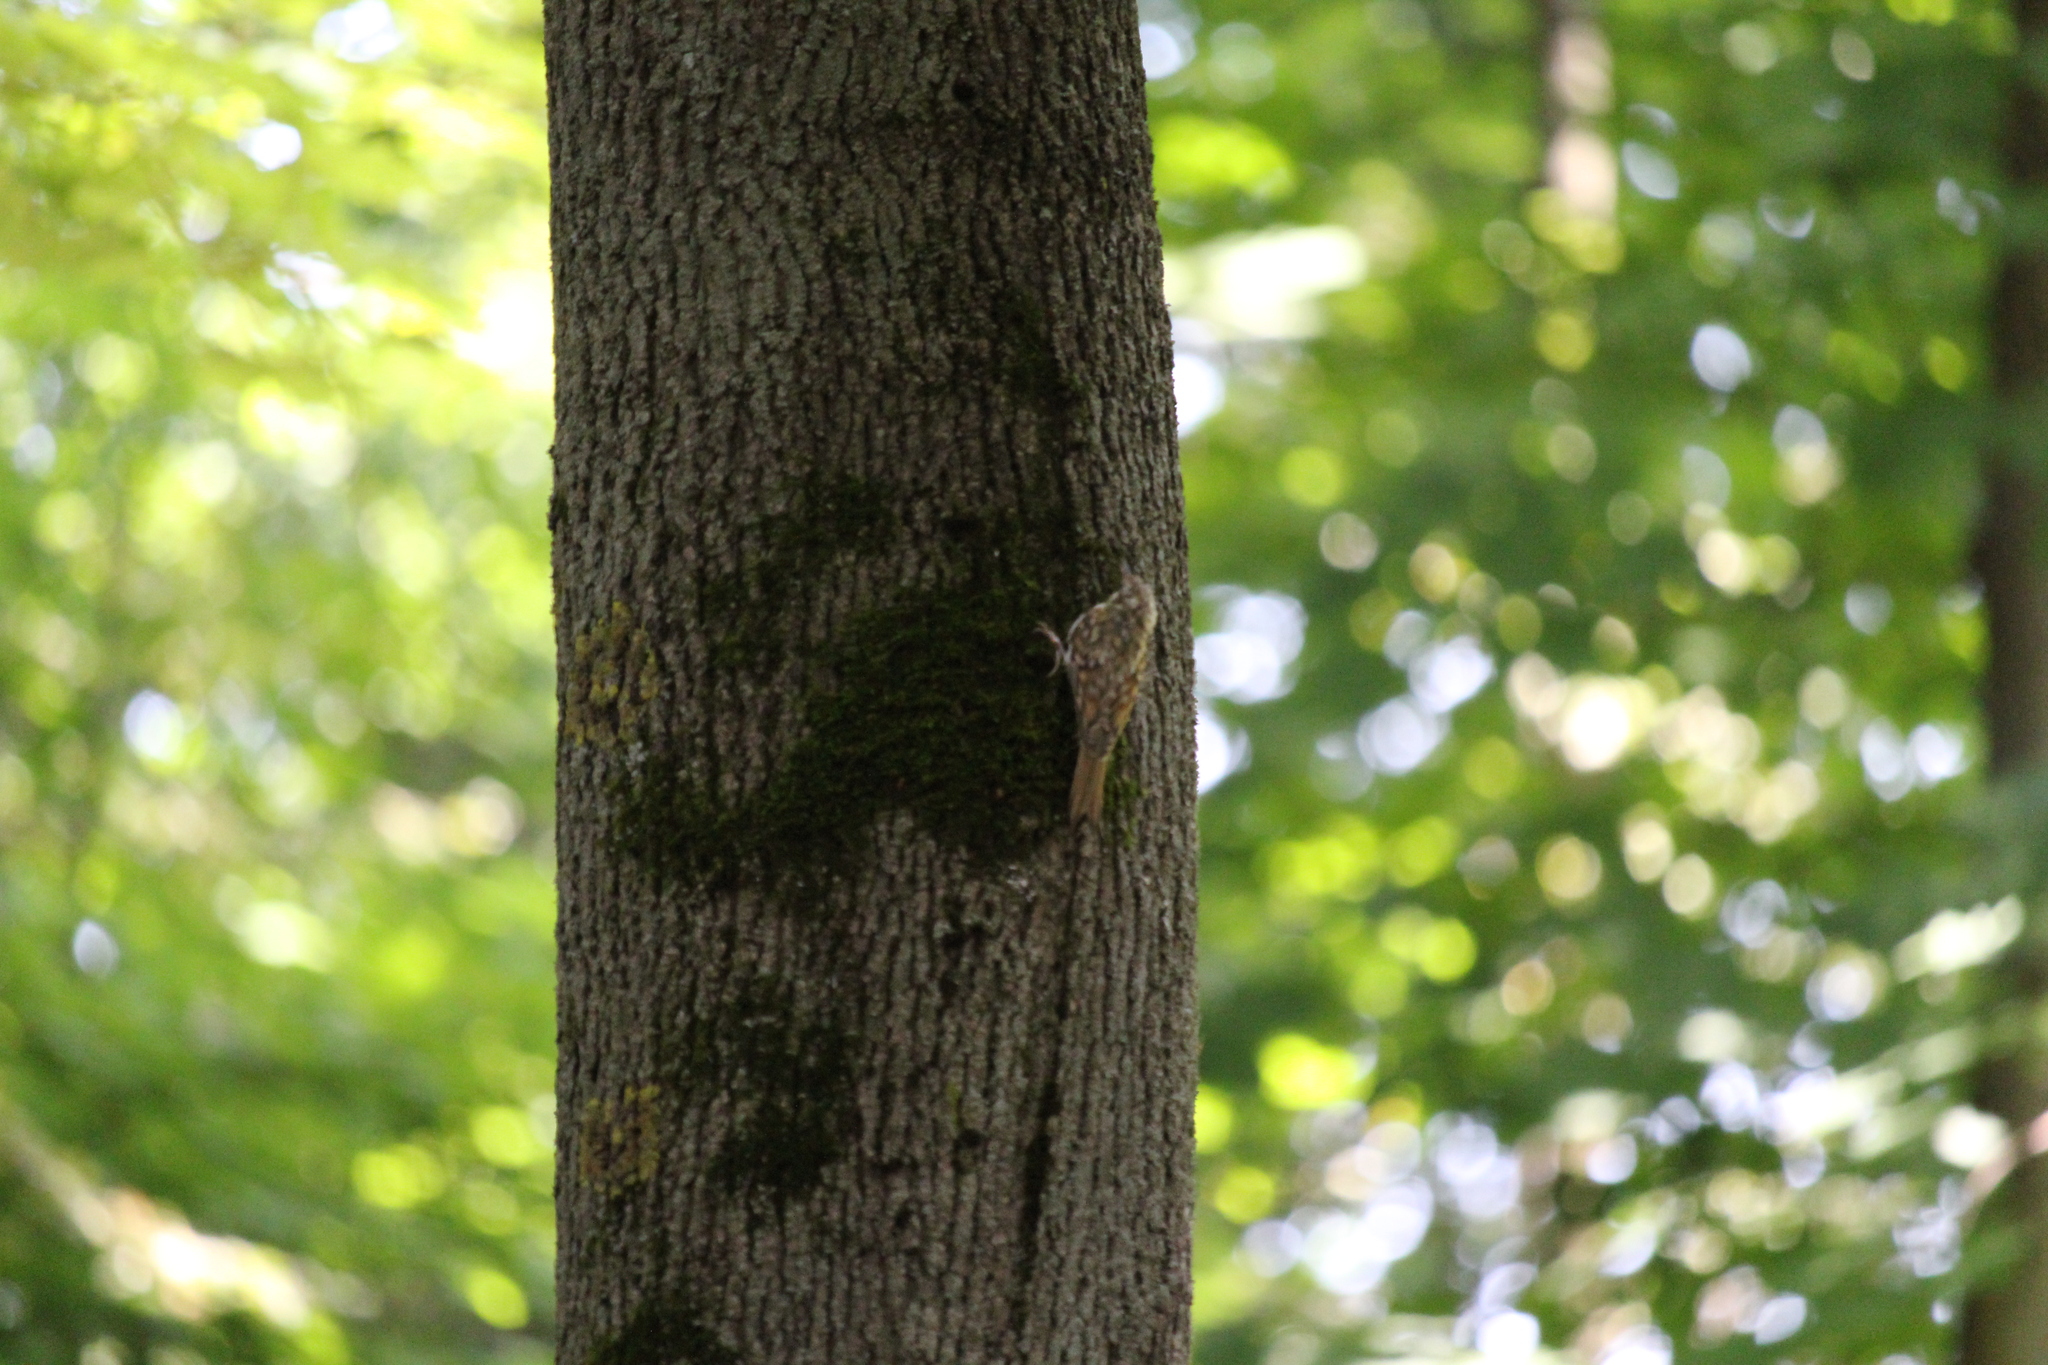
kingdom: Animalia
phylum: Chordata
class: Aves
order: Passeriformes
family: Certhiidae
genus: Certhia
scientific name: Certhia familiaris
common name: Eurasian treecreeper
